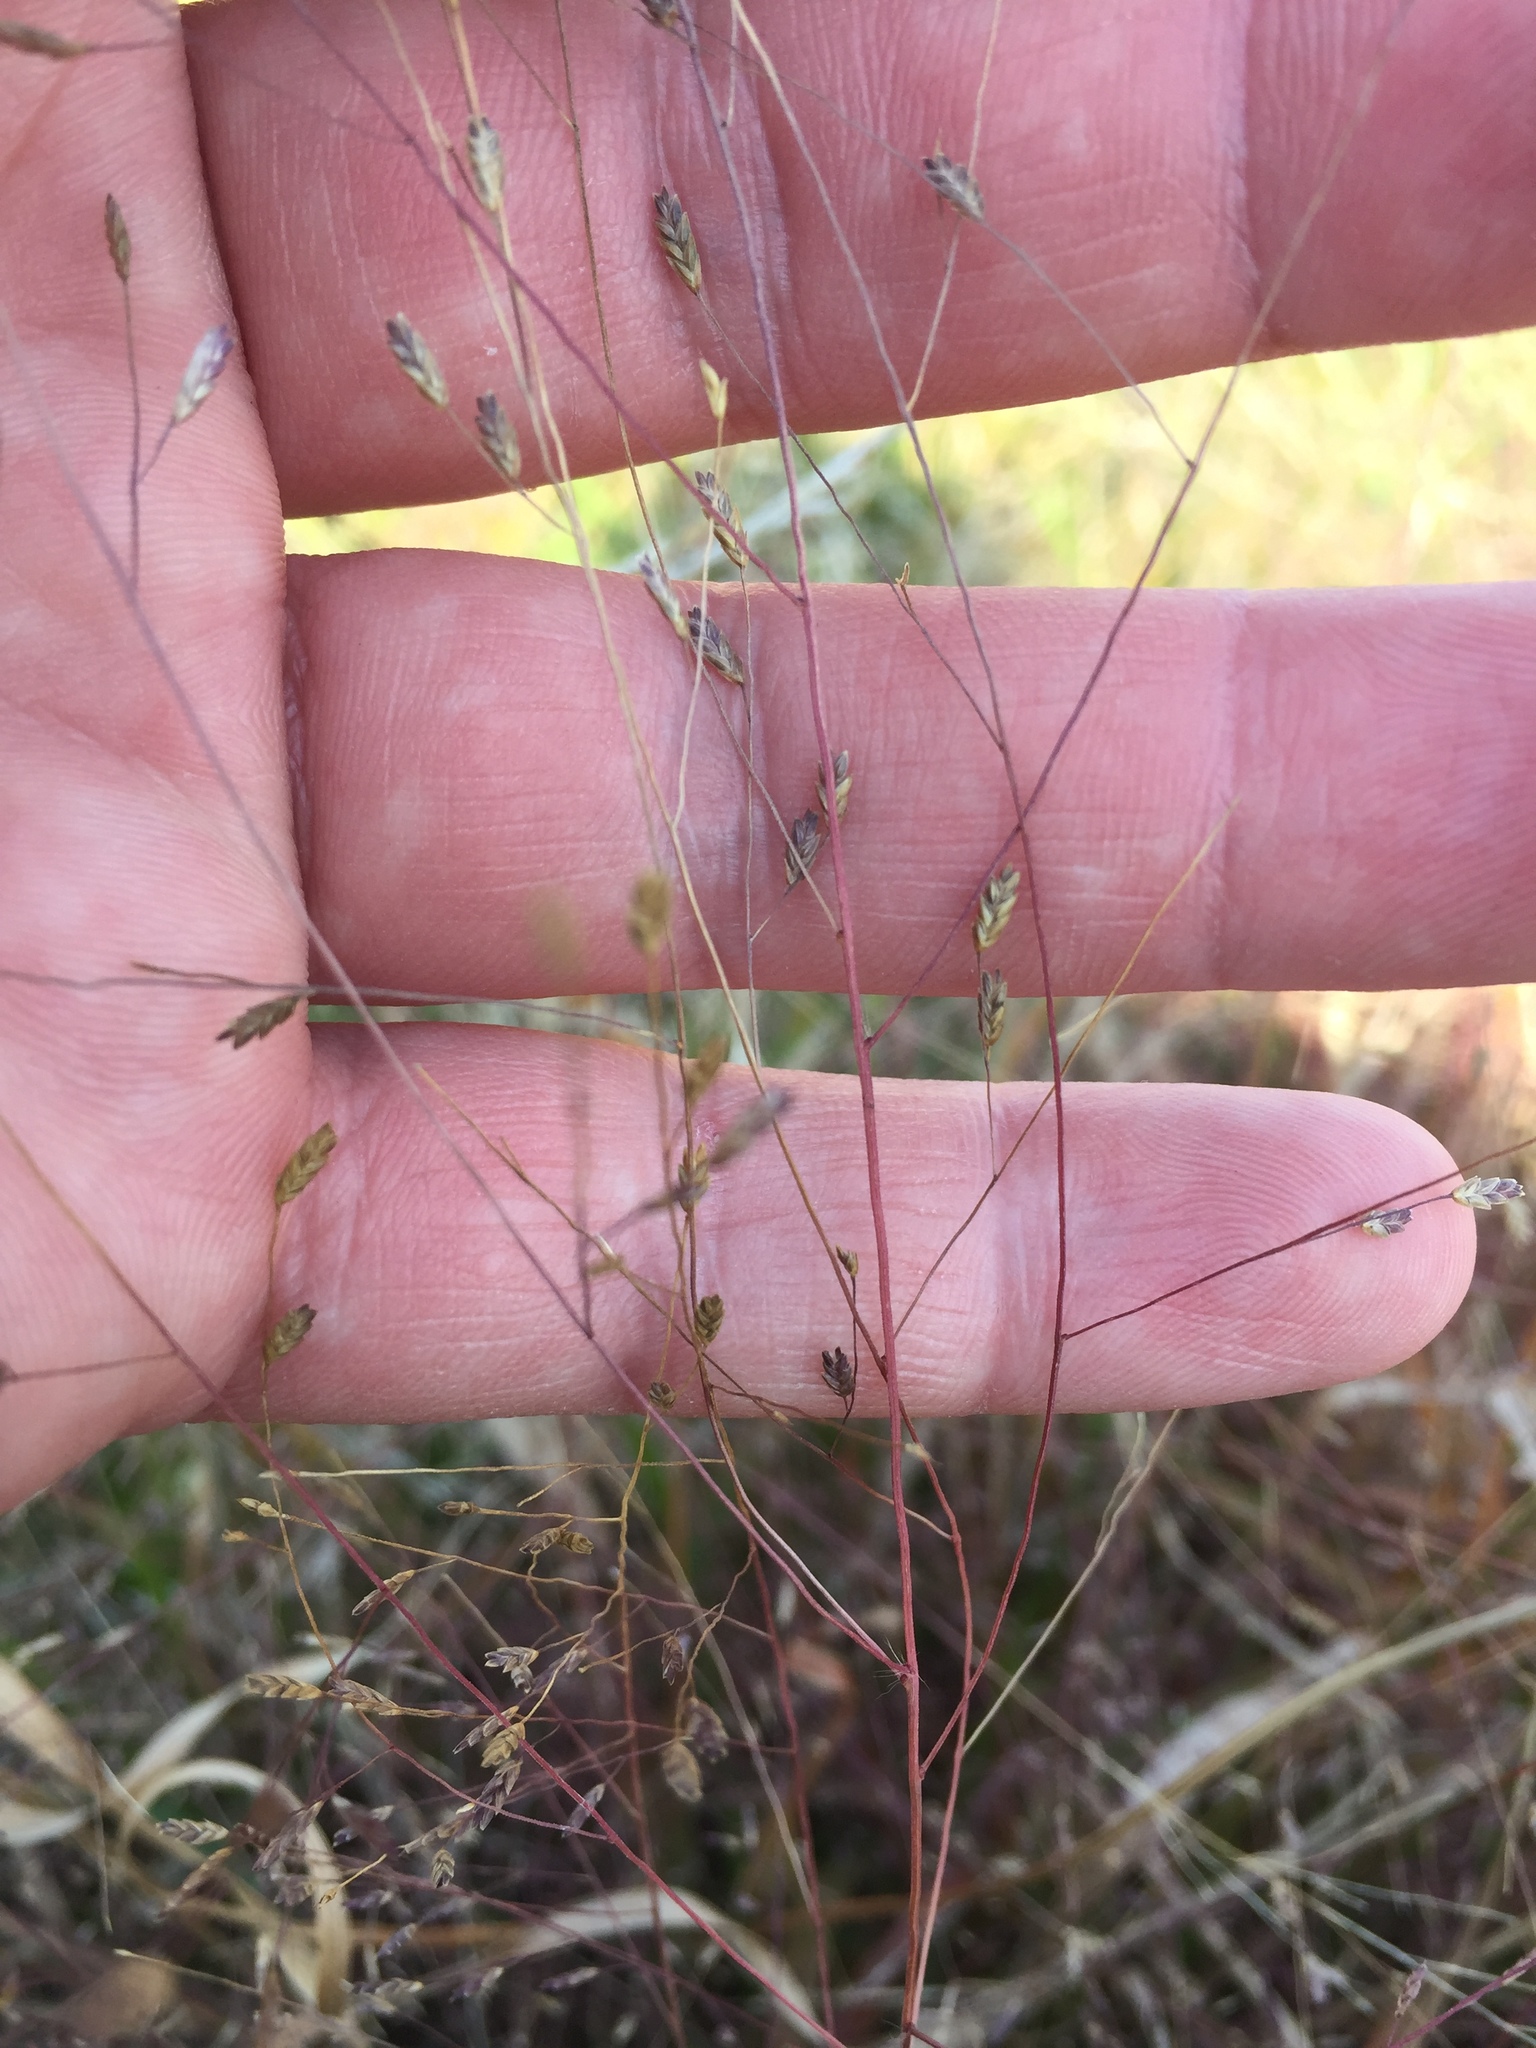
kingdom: Plantae
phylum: Tracheophyta
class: Liliopsida
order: Poales
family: Poaceae
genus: Eragrostis
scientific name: Eragrostis spectabilis
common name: Petticoat-climber
